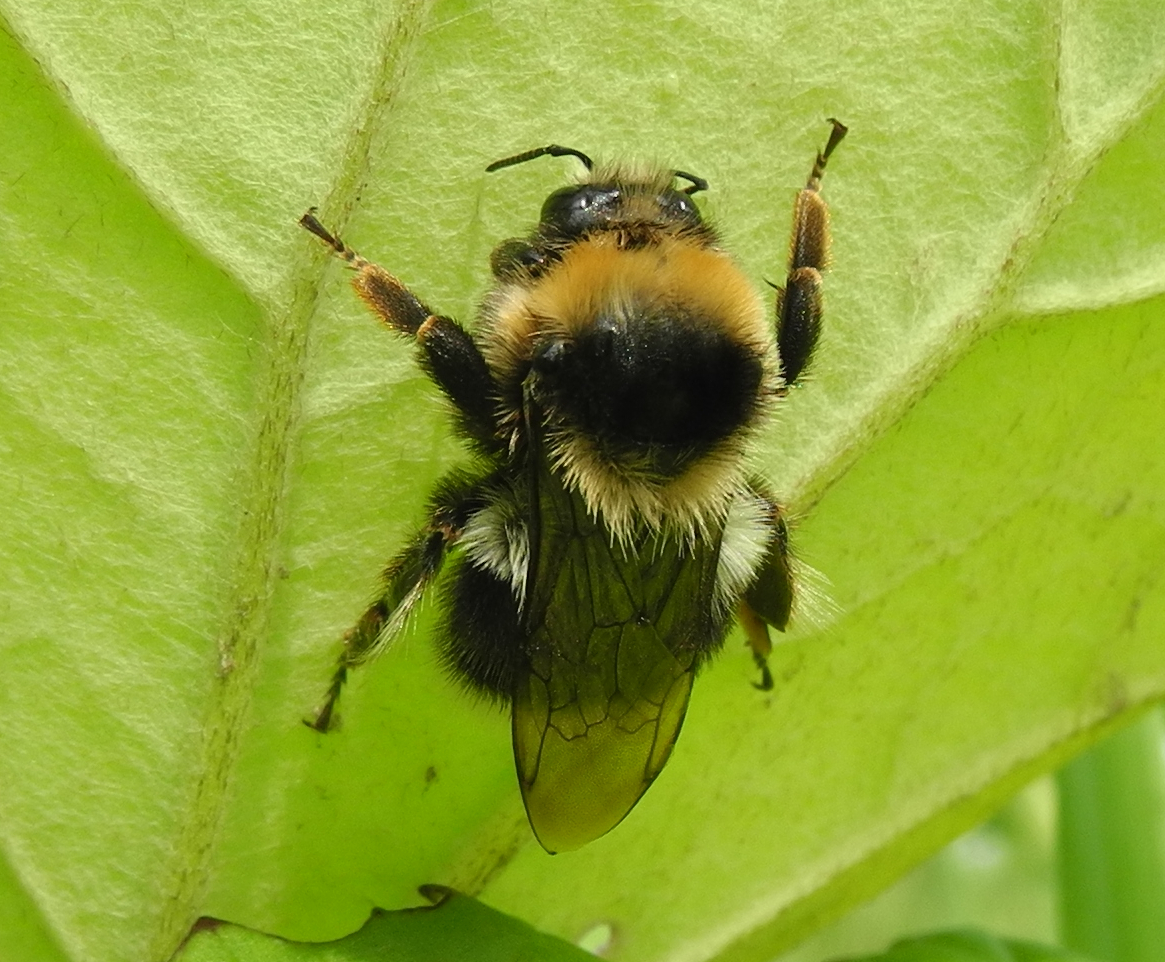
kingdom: Animalia
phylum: Arthropoda
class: Insecta
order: Hymenoptera
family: Apidae
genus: Bombus
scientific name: Bombus semenoviellus
